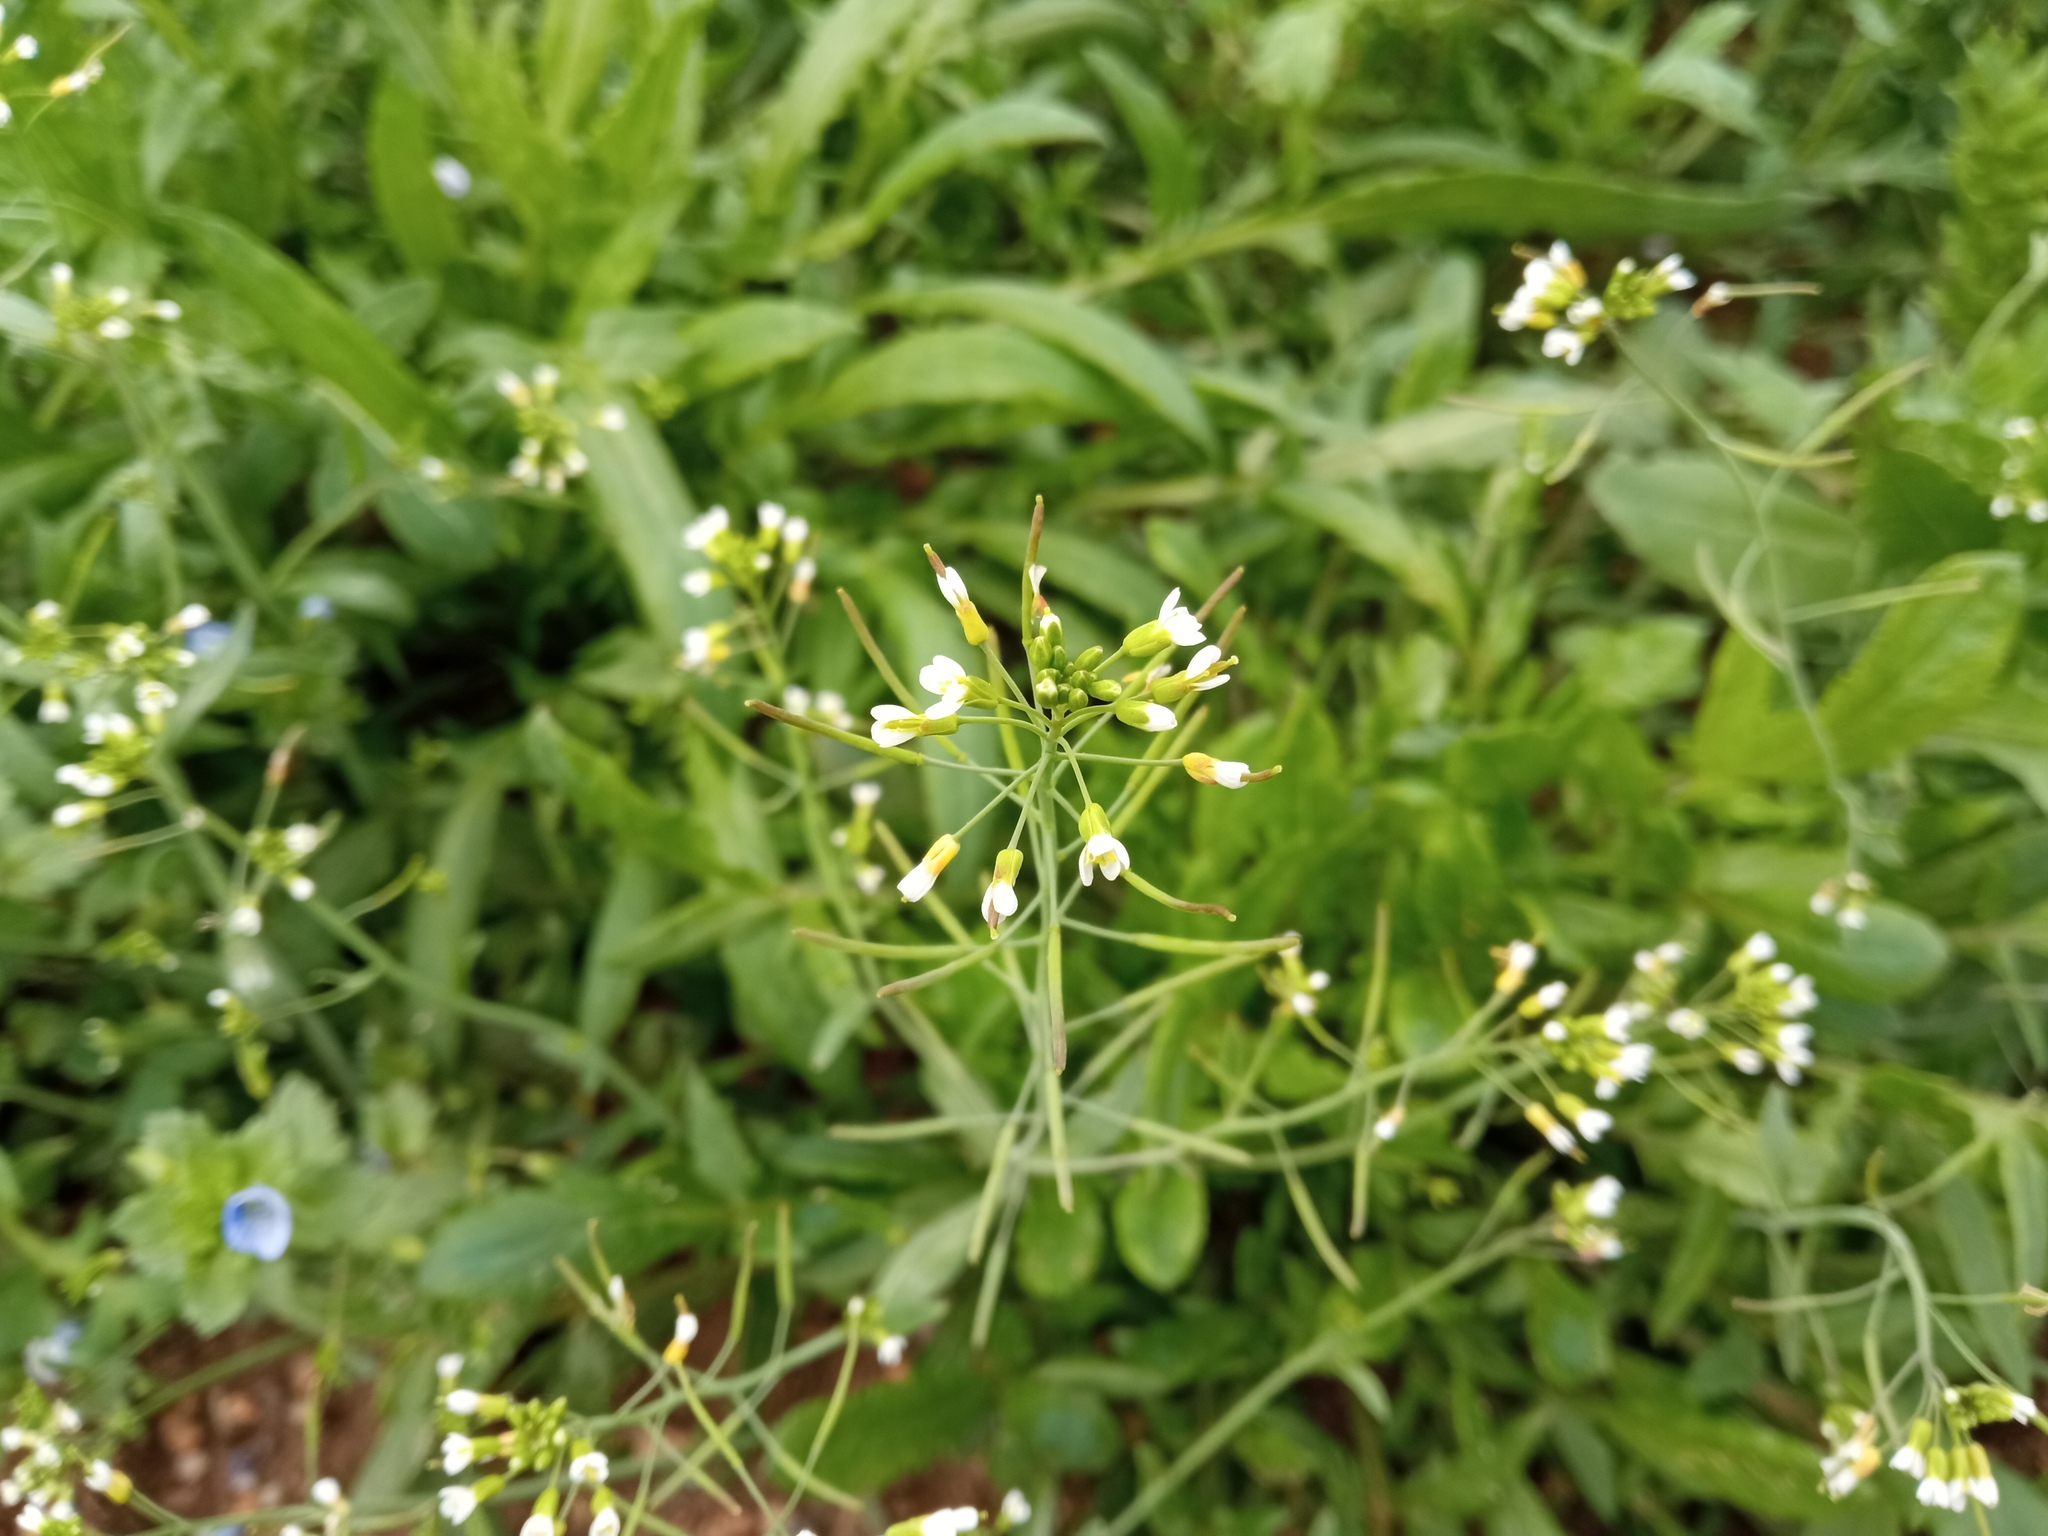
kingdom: Plantae
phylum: Tracheophyta
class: Magnoliopsida
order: Brassicales
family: Brassicaceae
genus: Arabidopsis
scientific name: Arabidopsis thaliana
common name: Thale cress
